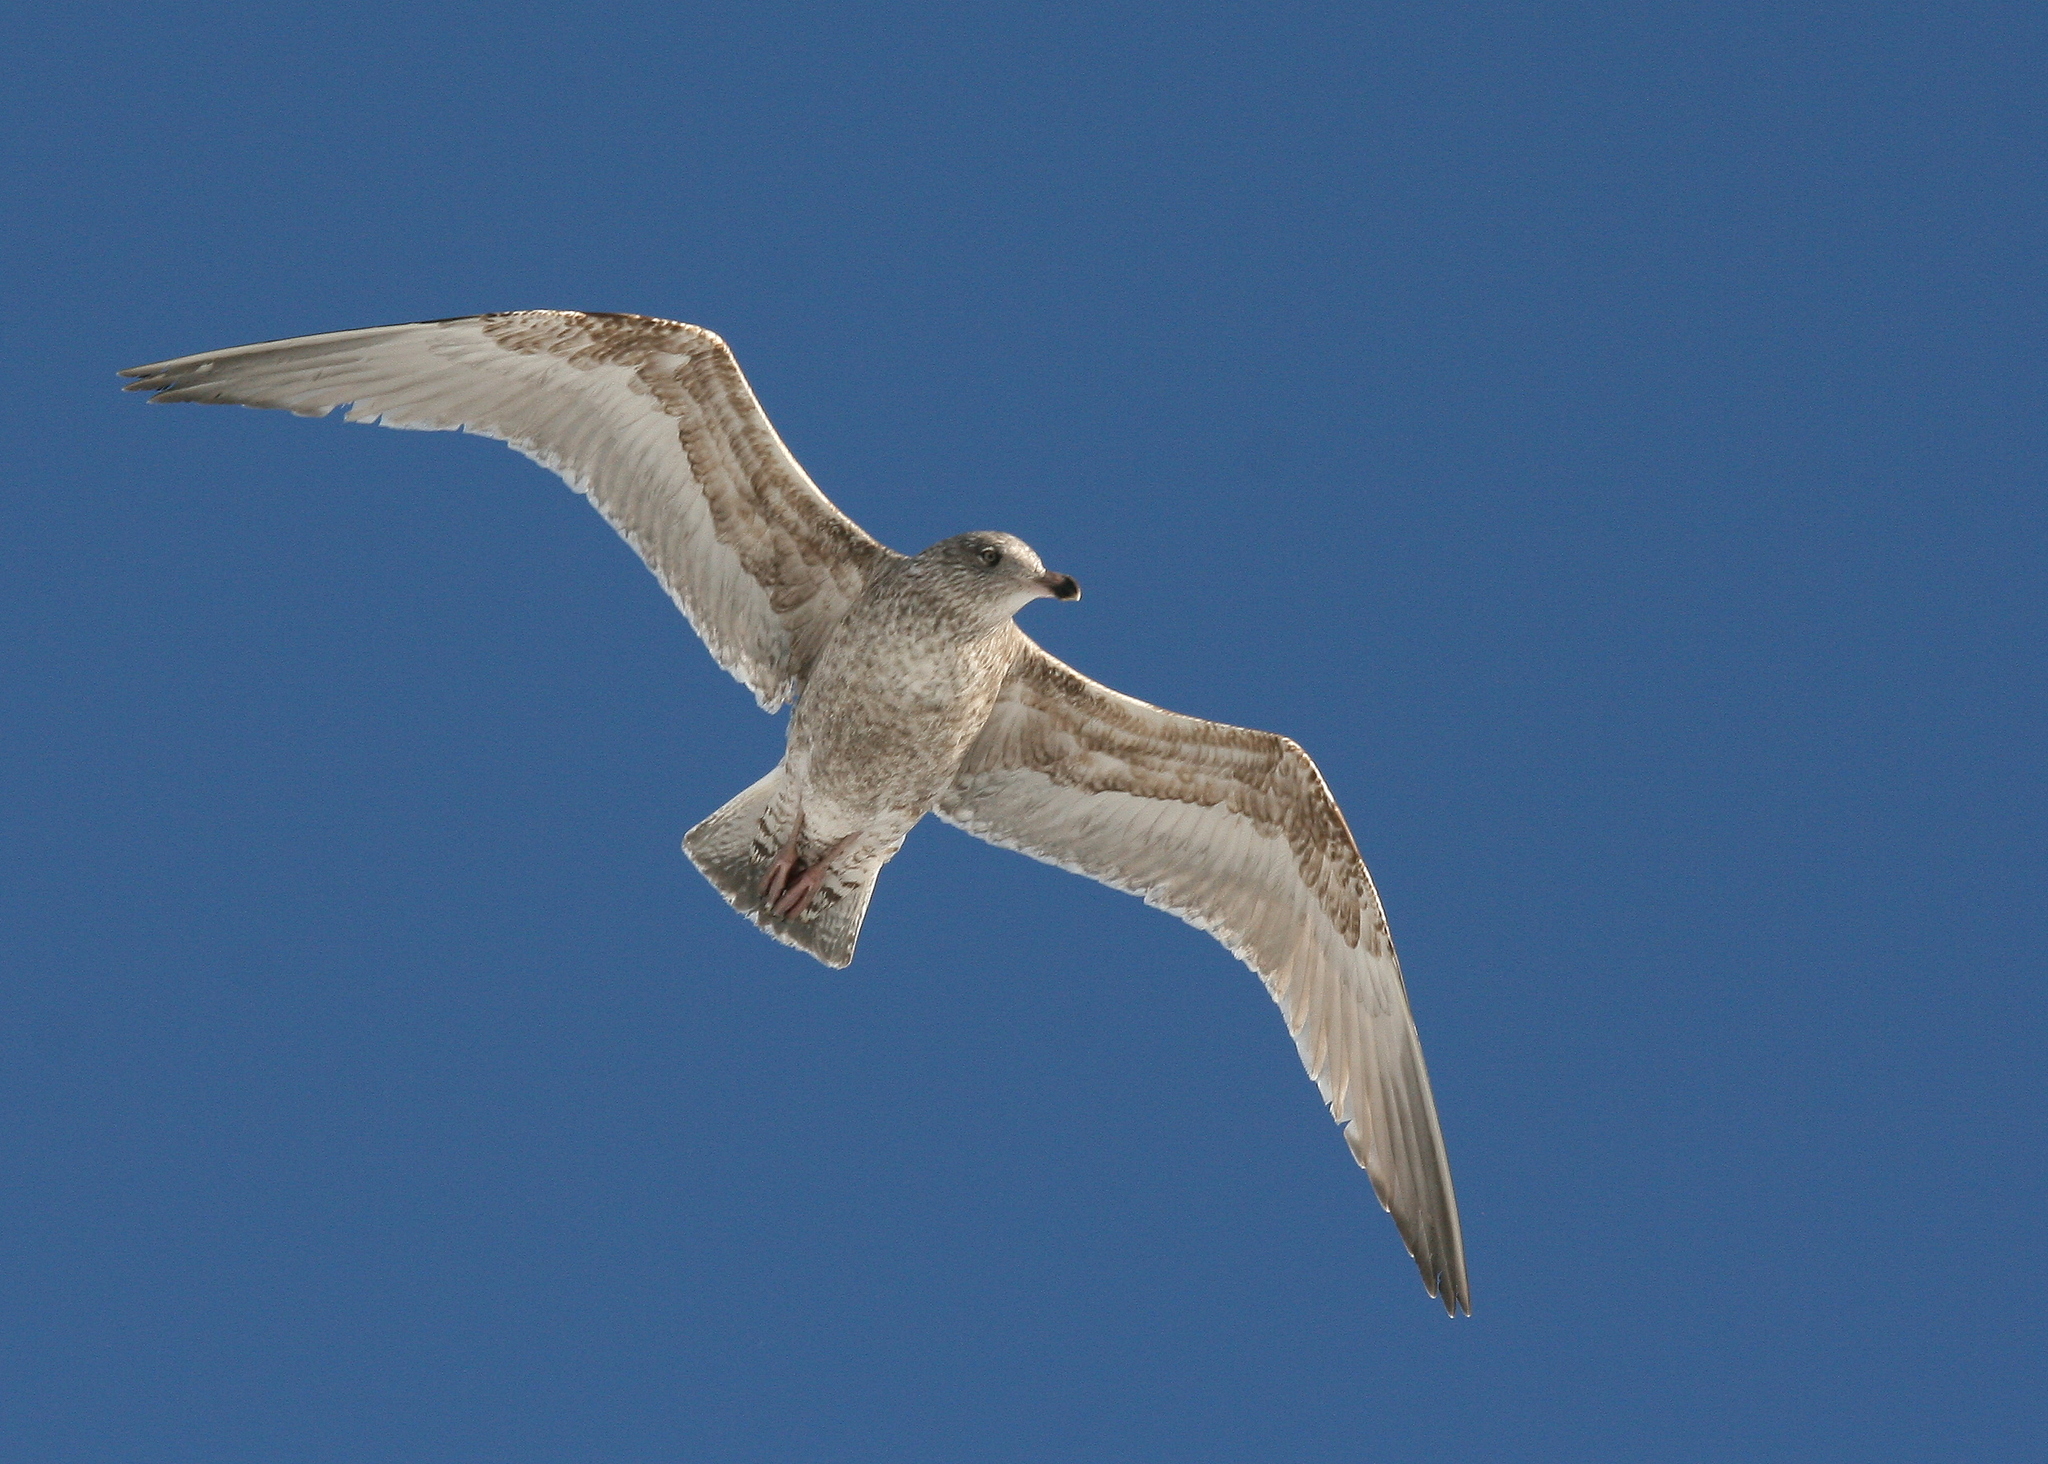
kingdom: Animalia
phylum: Chordata
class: Aves
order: Charadriiformes
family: Laridae
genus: Larus
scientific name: Larus argentatus
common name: Herring gull
